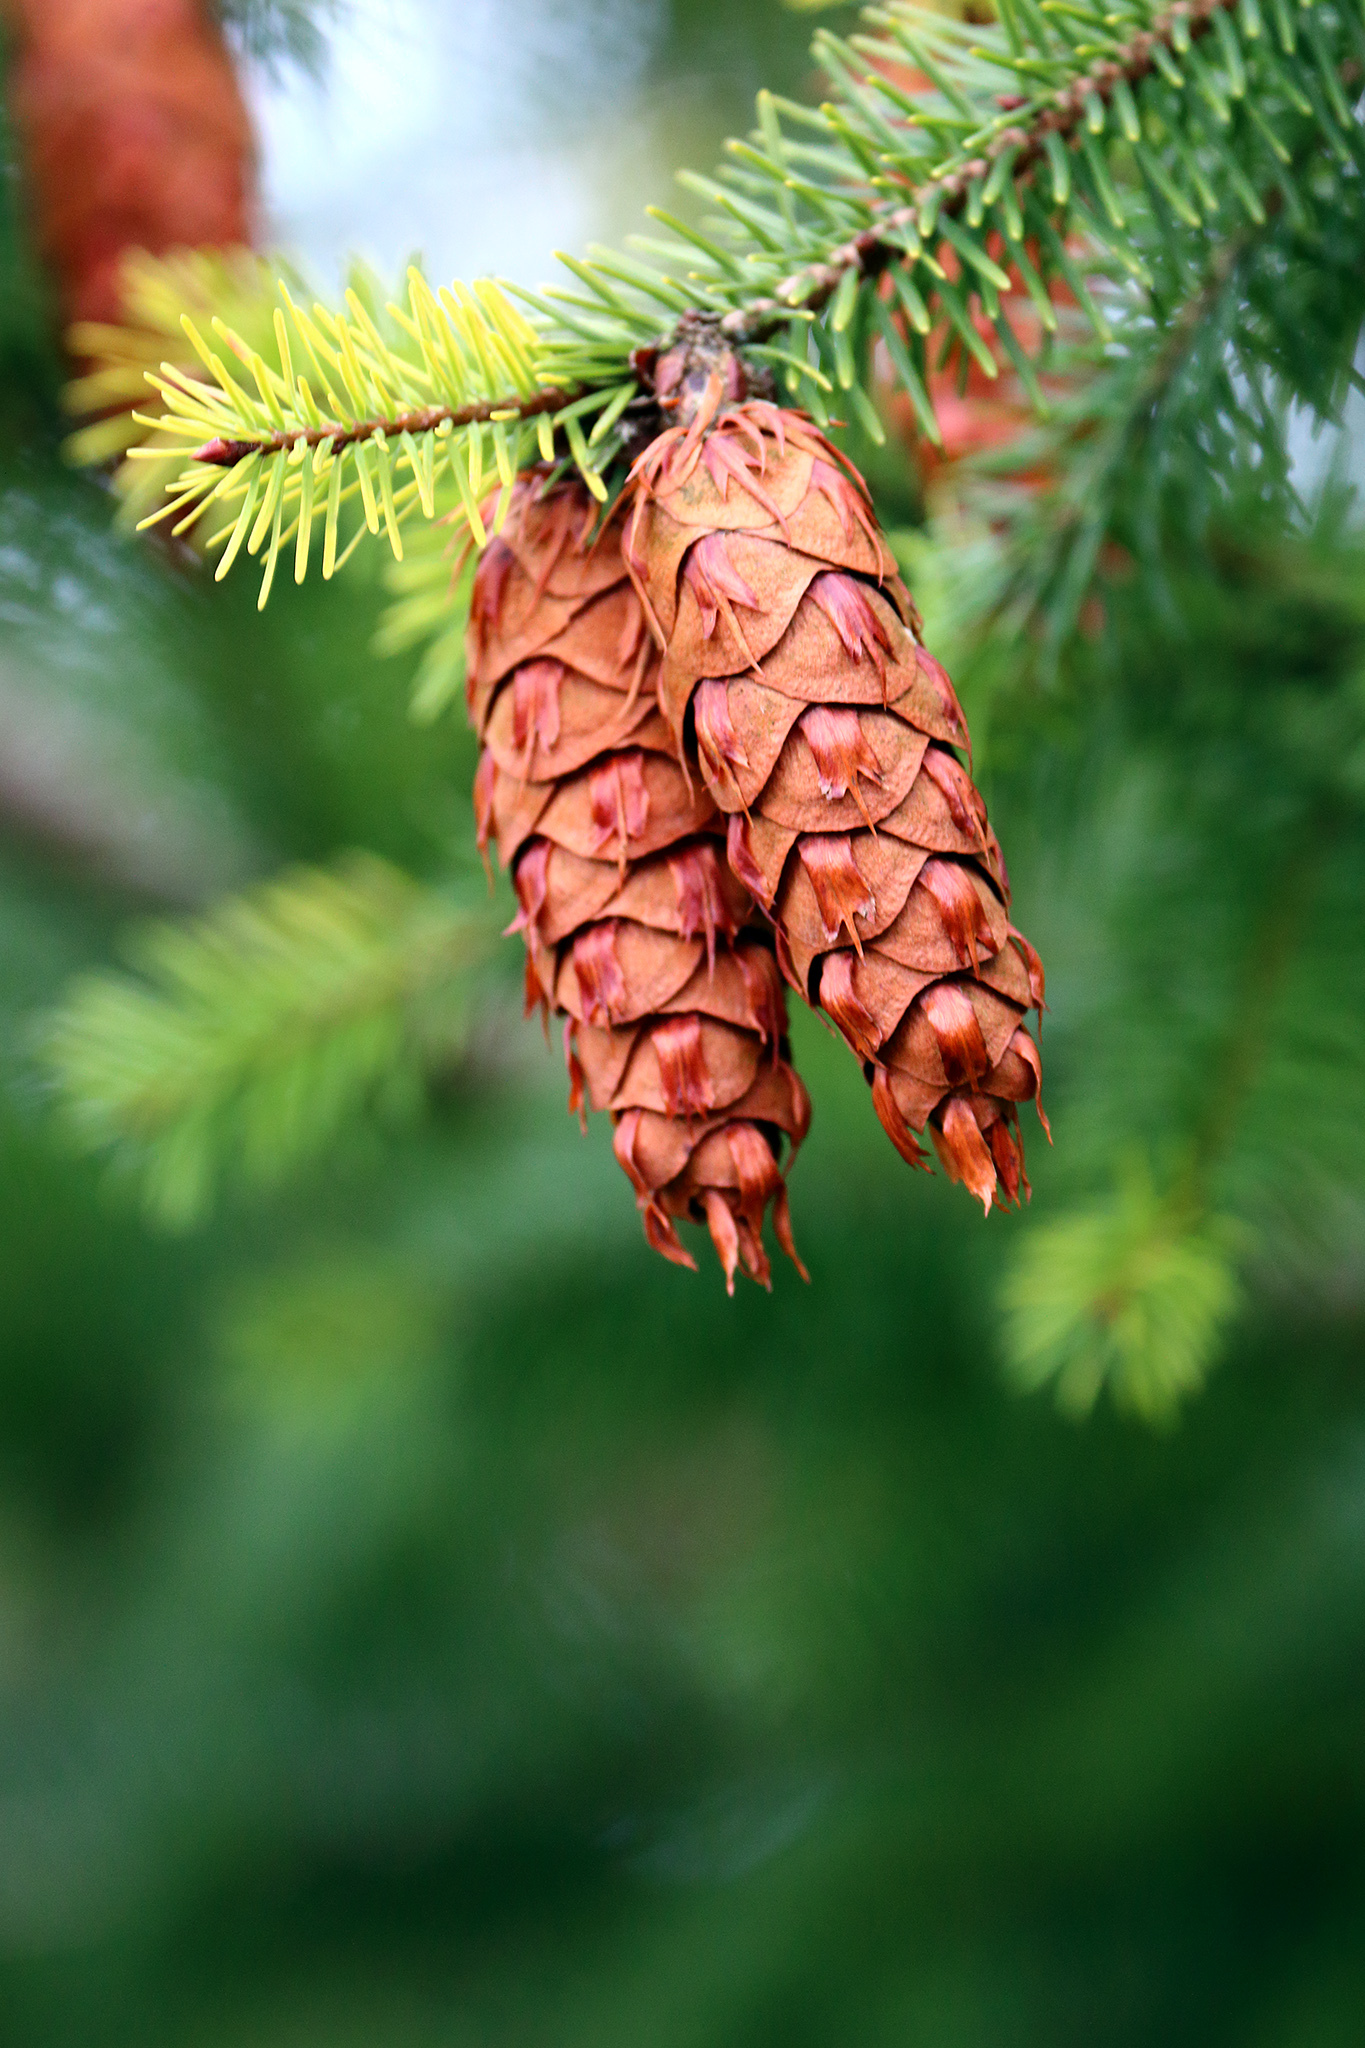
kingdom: Plantae
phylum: Tracheophyta
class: Pinopsida
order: Pinales
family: Pinaceae
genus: Pseudotsuga
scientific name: Pseudotsuga menziesii
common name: Douglas fir
